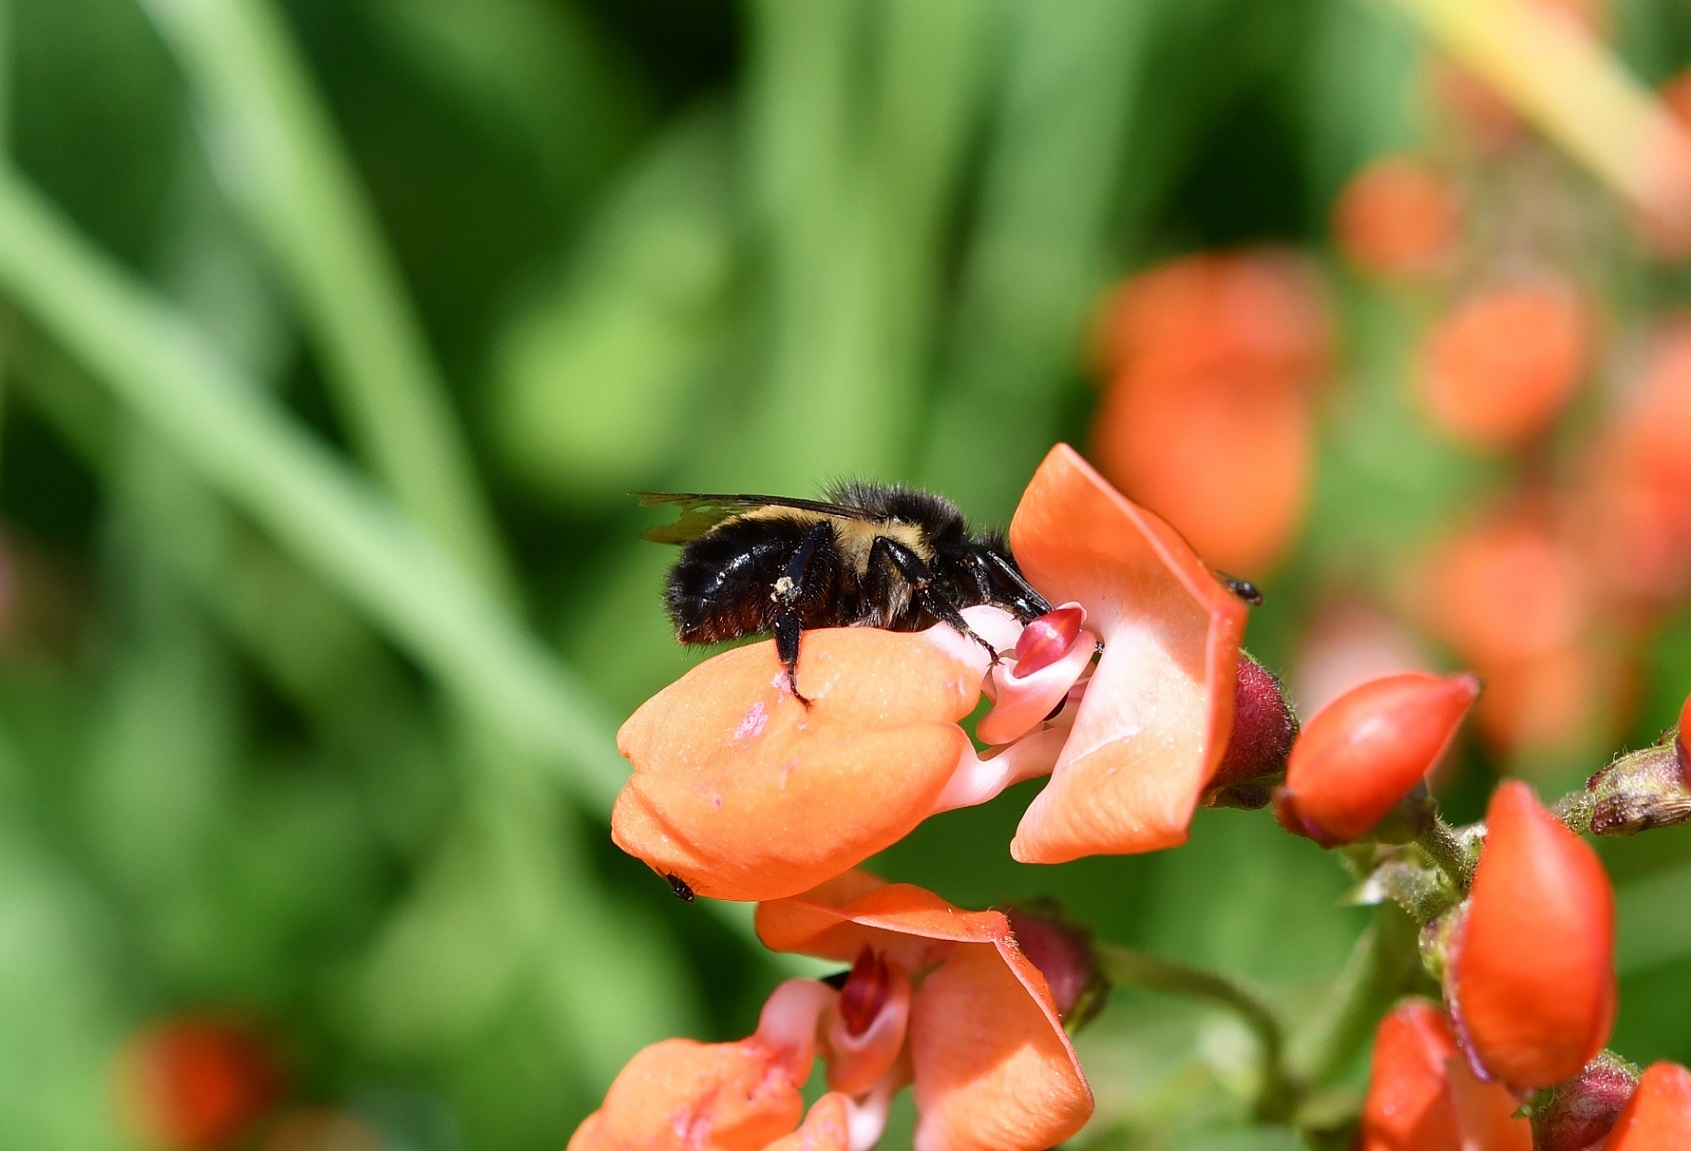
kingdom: Animalia
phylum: Arthropoda
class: Insecta
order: Hymenoptera
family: Apidae
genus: Bombus
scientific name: Bombus ephippiatus
